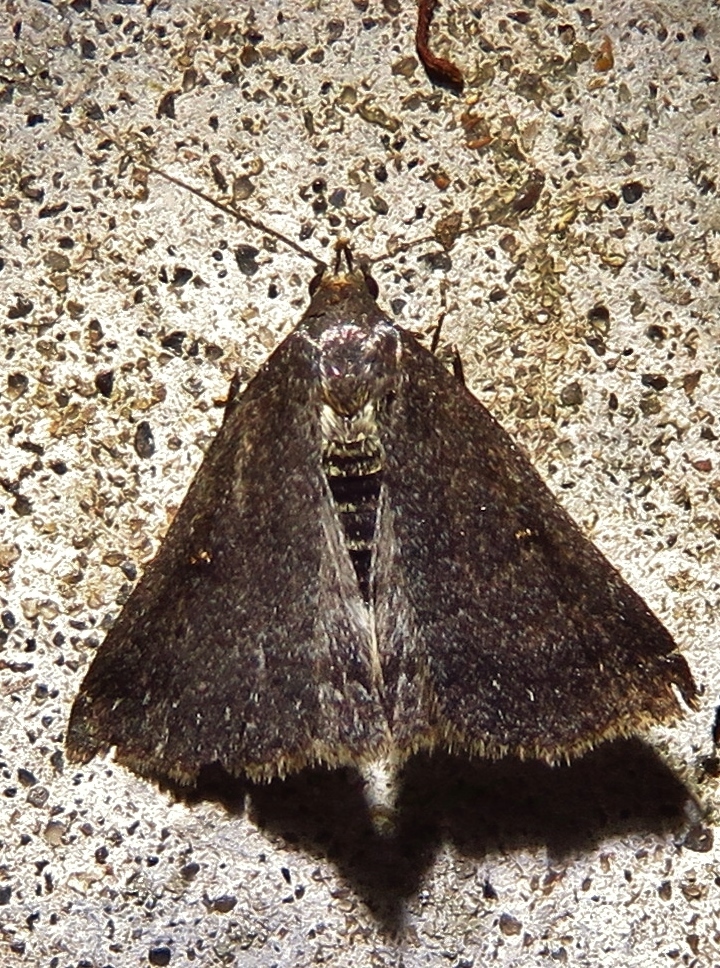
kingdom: Animalia
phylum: Arthropoda
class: Insecta
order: Lepidoptera
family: Erebidae
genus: Tetanolita
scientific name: Tetanolita mynesalis
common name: Smoky tetanolita moth
